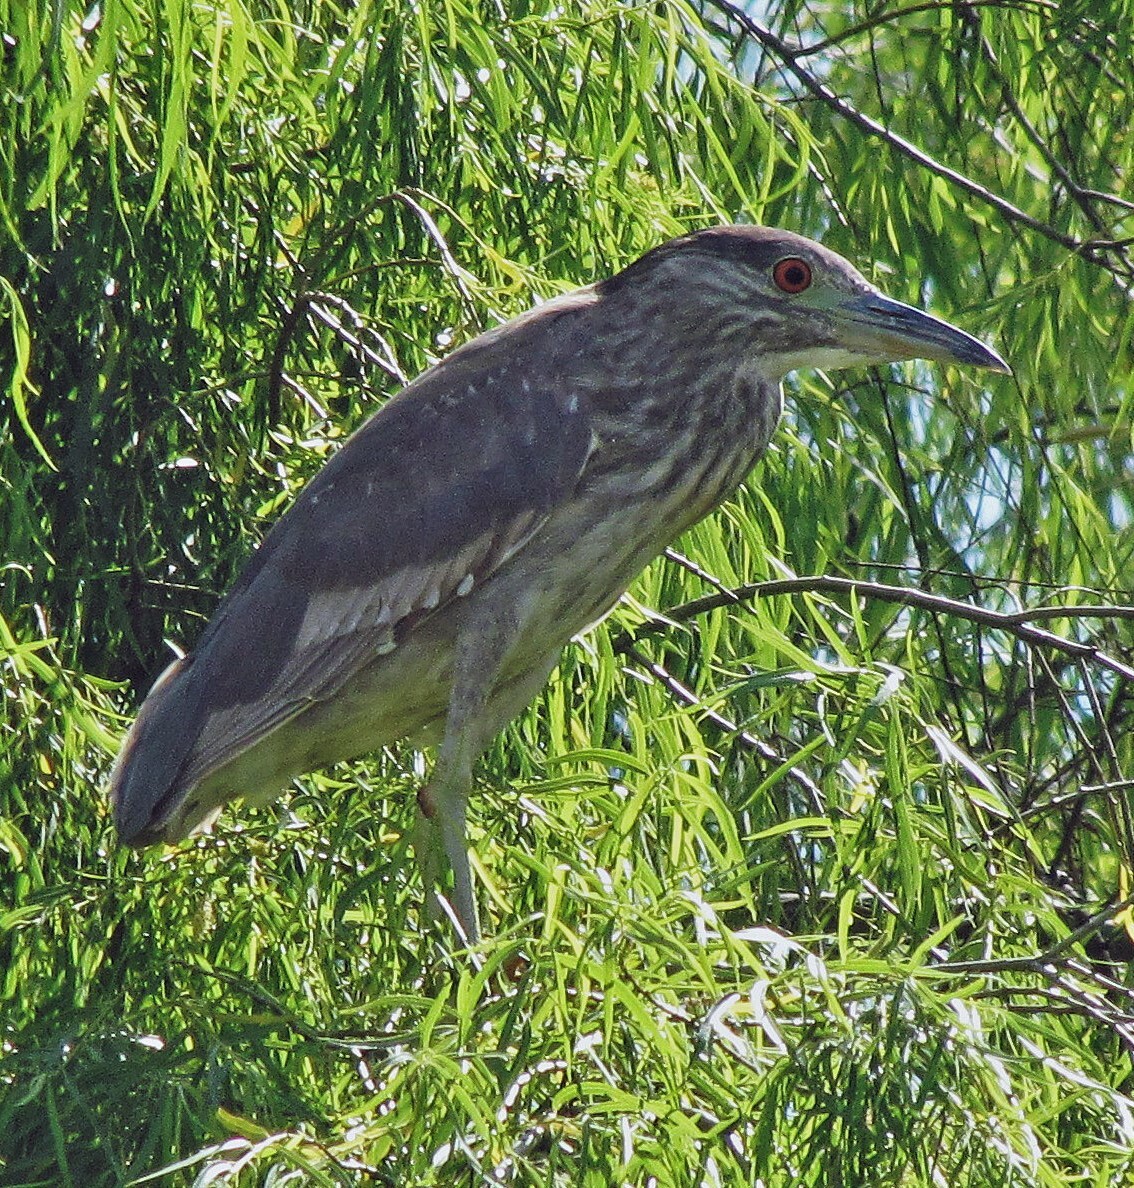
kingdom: Animalia
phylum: Chordata
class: Aves
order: Pelecaniformes
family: Ardeidae
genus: Nycticorax
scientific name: Nycticorax nycticorax
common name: Black-crowned night heron
